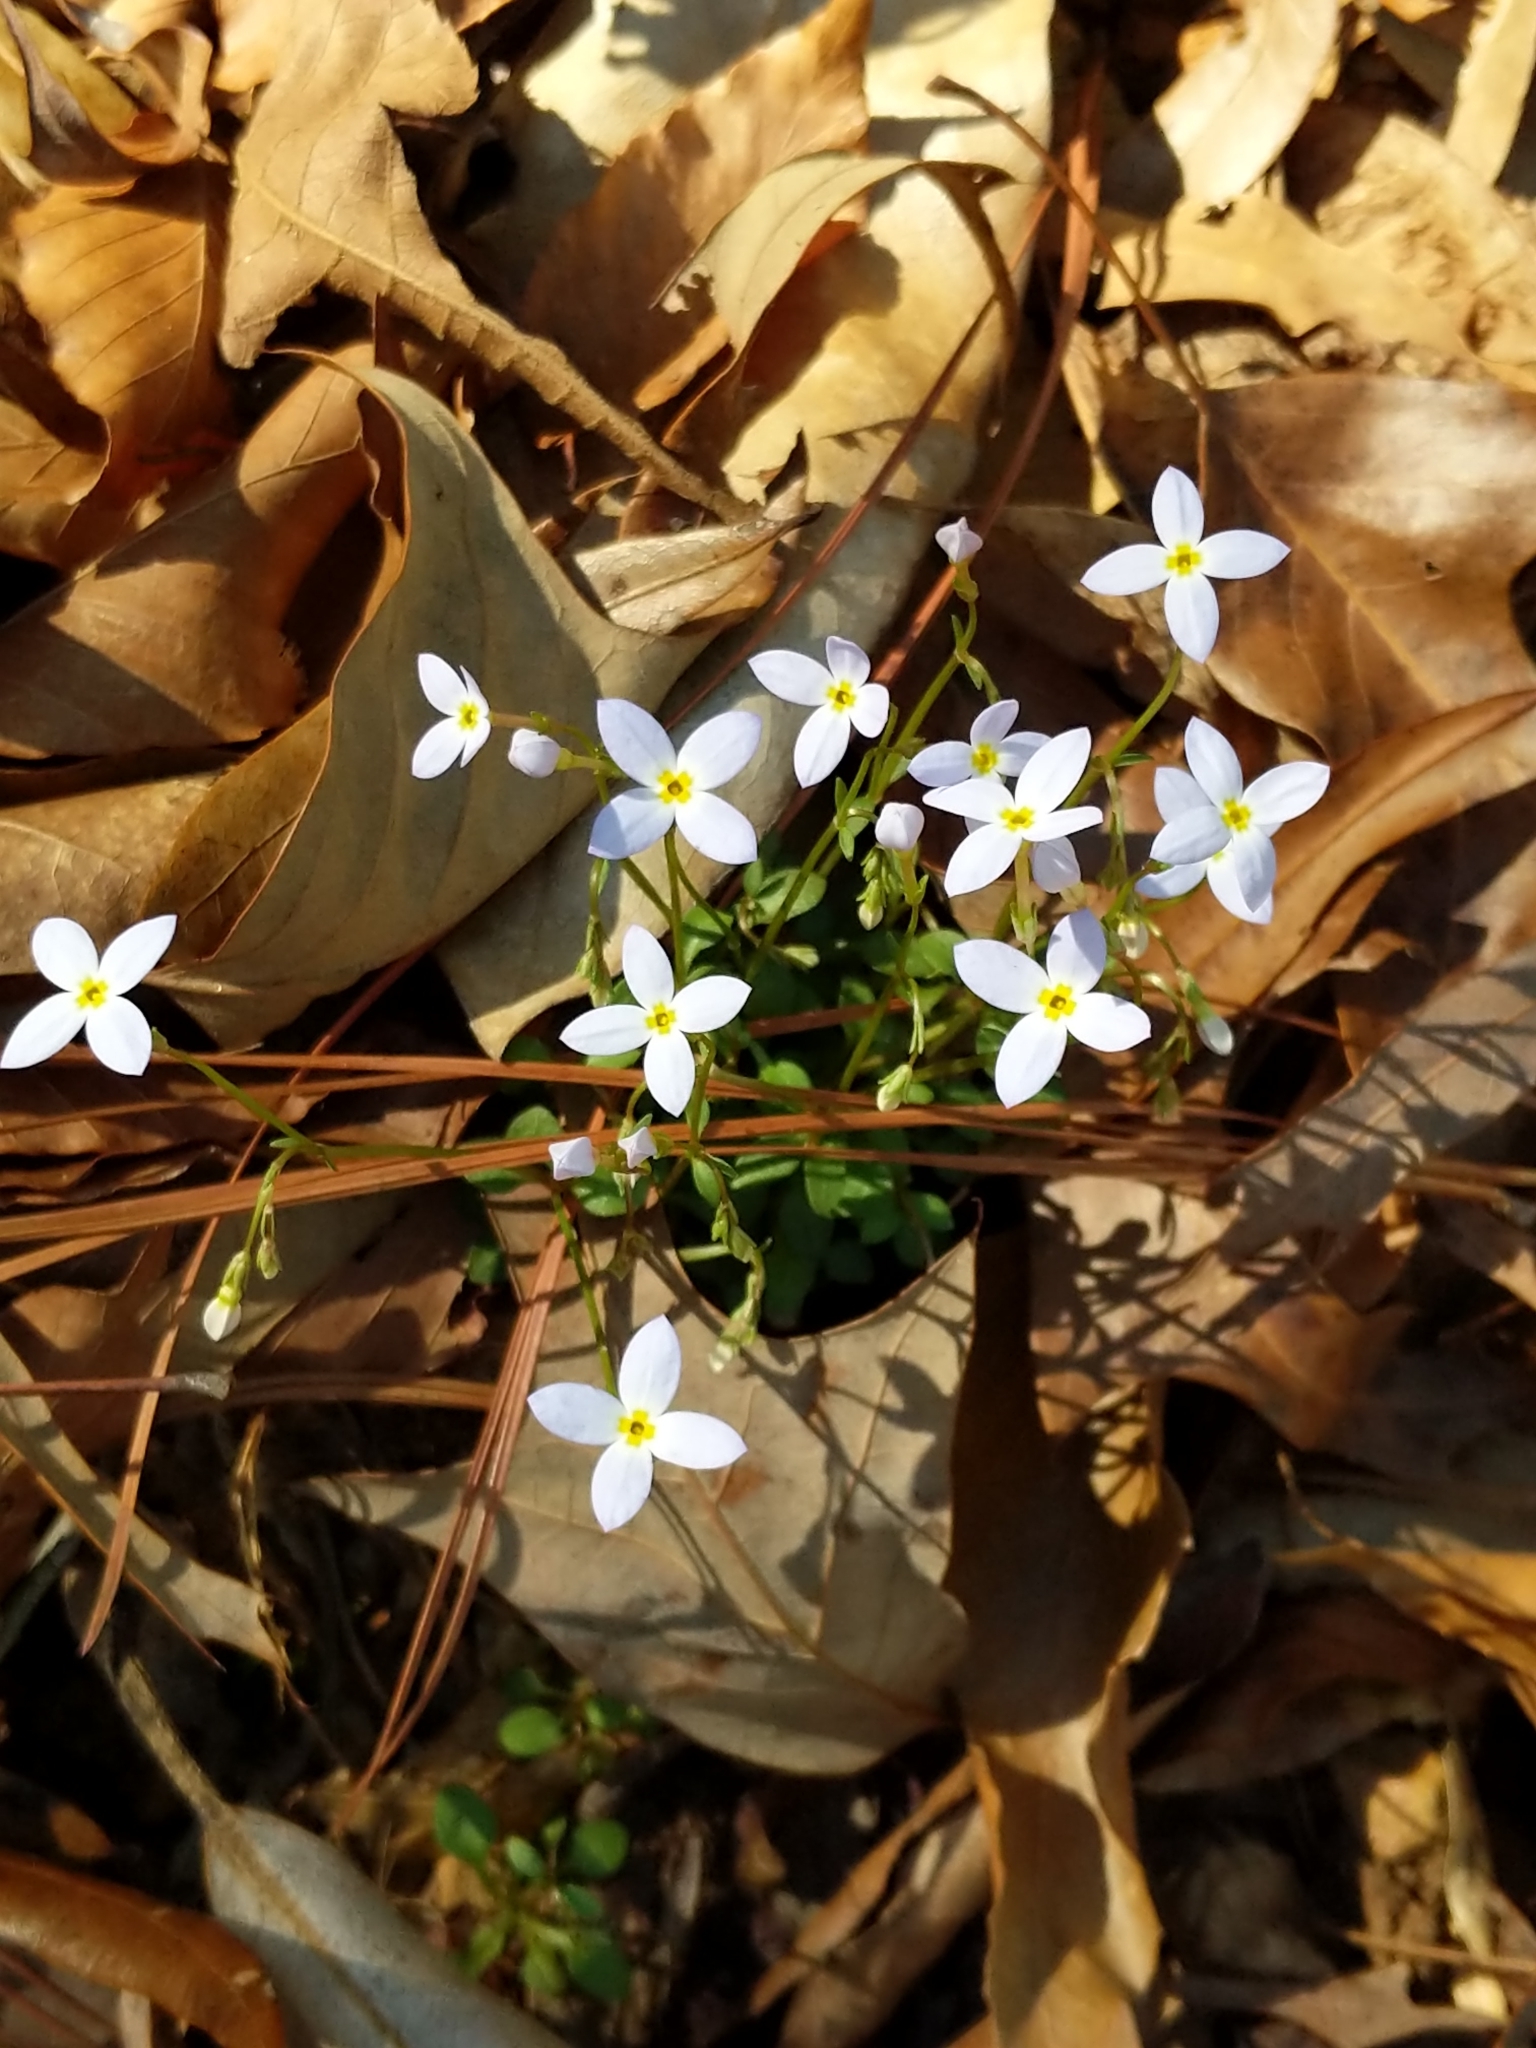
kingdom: Plantae
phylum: Tracheophyta
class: Magnoliopsida
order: Gentianales
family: Rubiaceae
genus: Houstonia
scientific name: Houstonia caerulea
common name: Bluets
